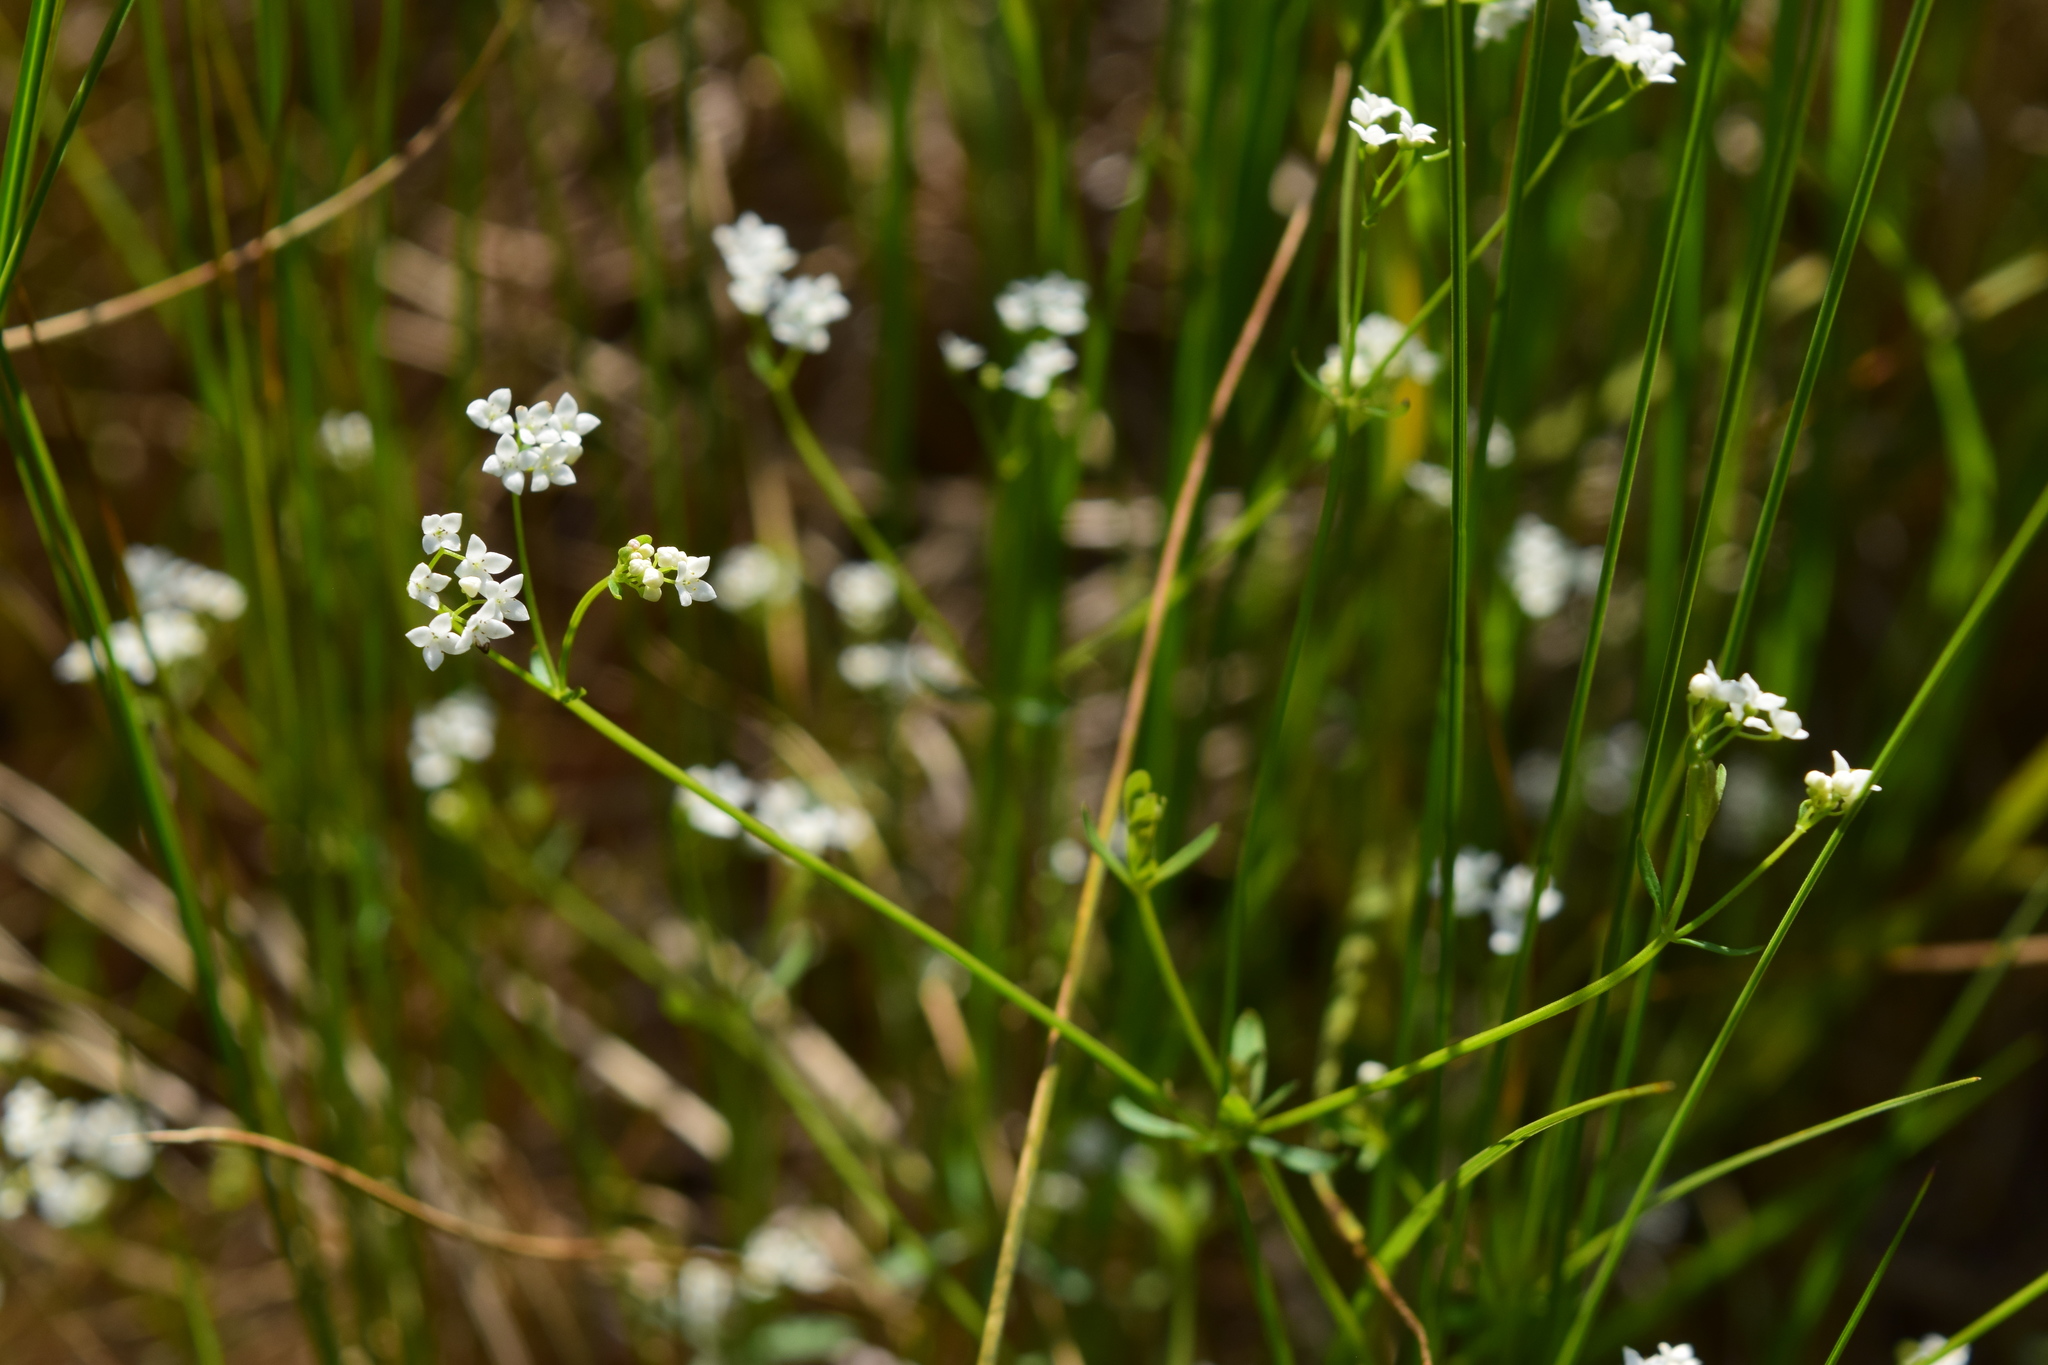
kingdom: Plantae
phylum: Tracheophyta
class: Magnoliopsida
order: Gentianales
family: Rubiaceae
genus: Galium
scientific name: Galium palustre
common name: Common marsh-bedstraw
